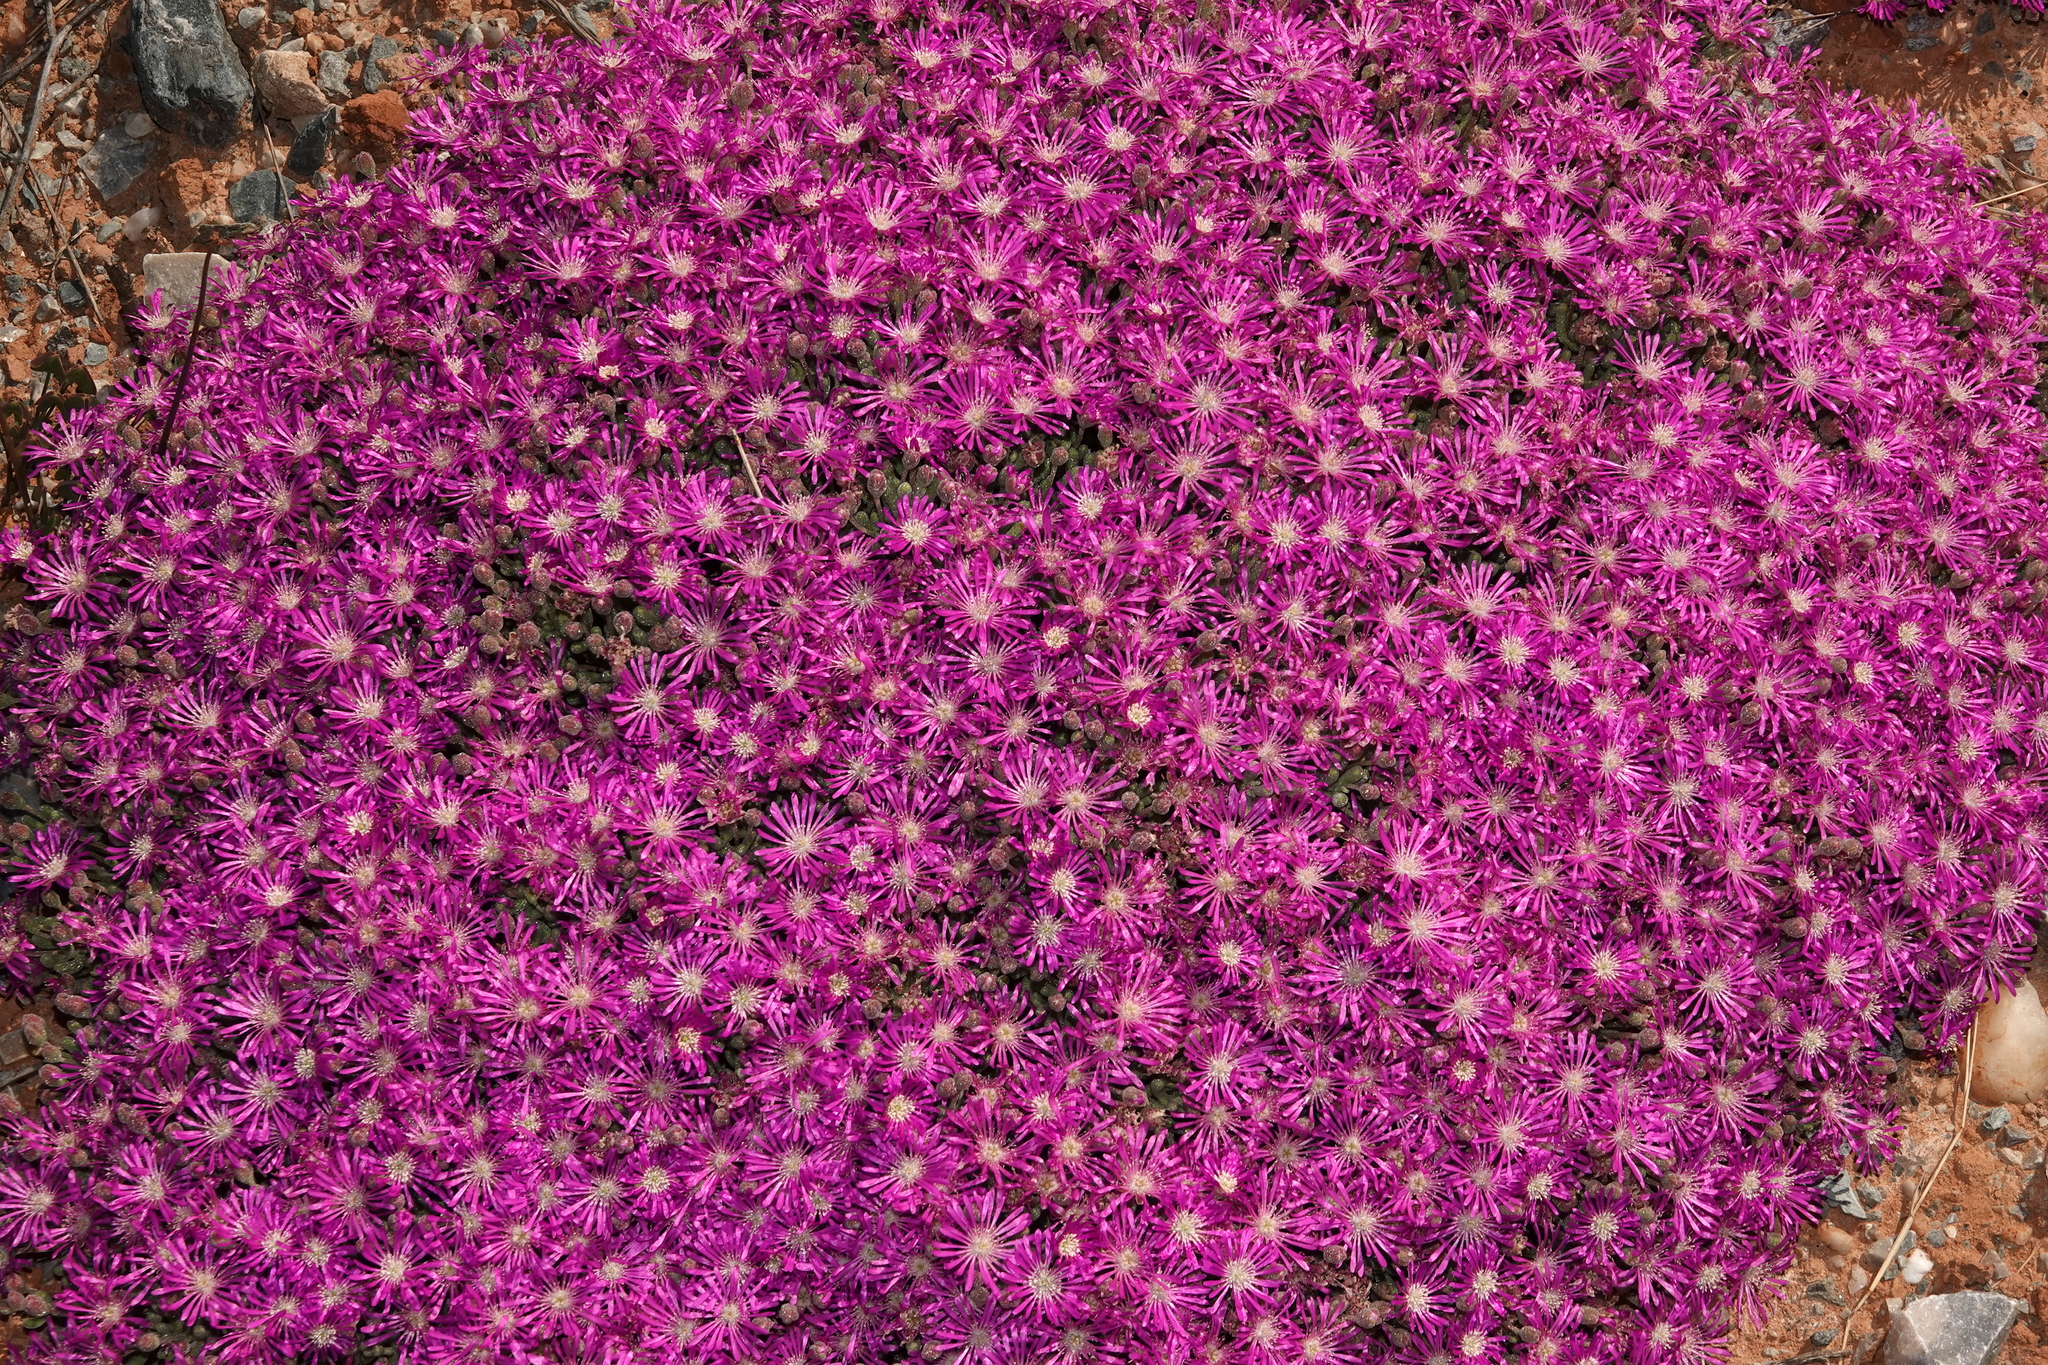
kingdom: Plantae
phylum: Tracheophyta
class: Magnoliopsida
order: Caryophyllales
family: Aizoaceae
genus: Drosanthemum
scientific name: Drosanthemum oculatum
